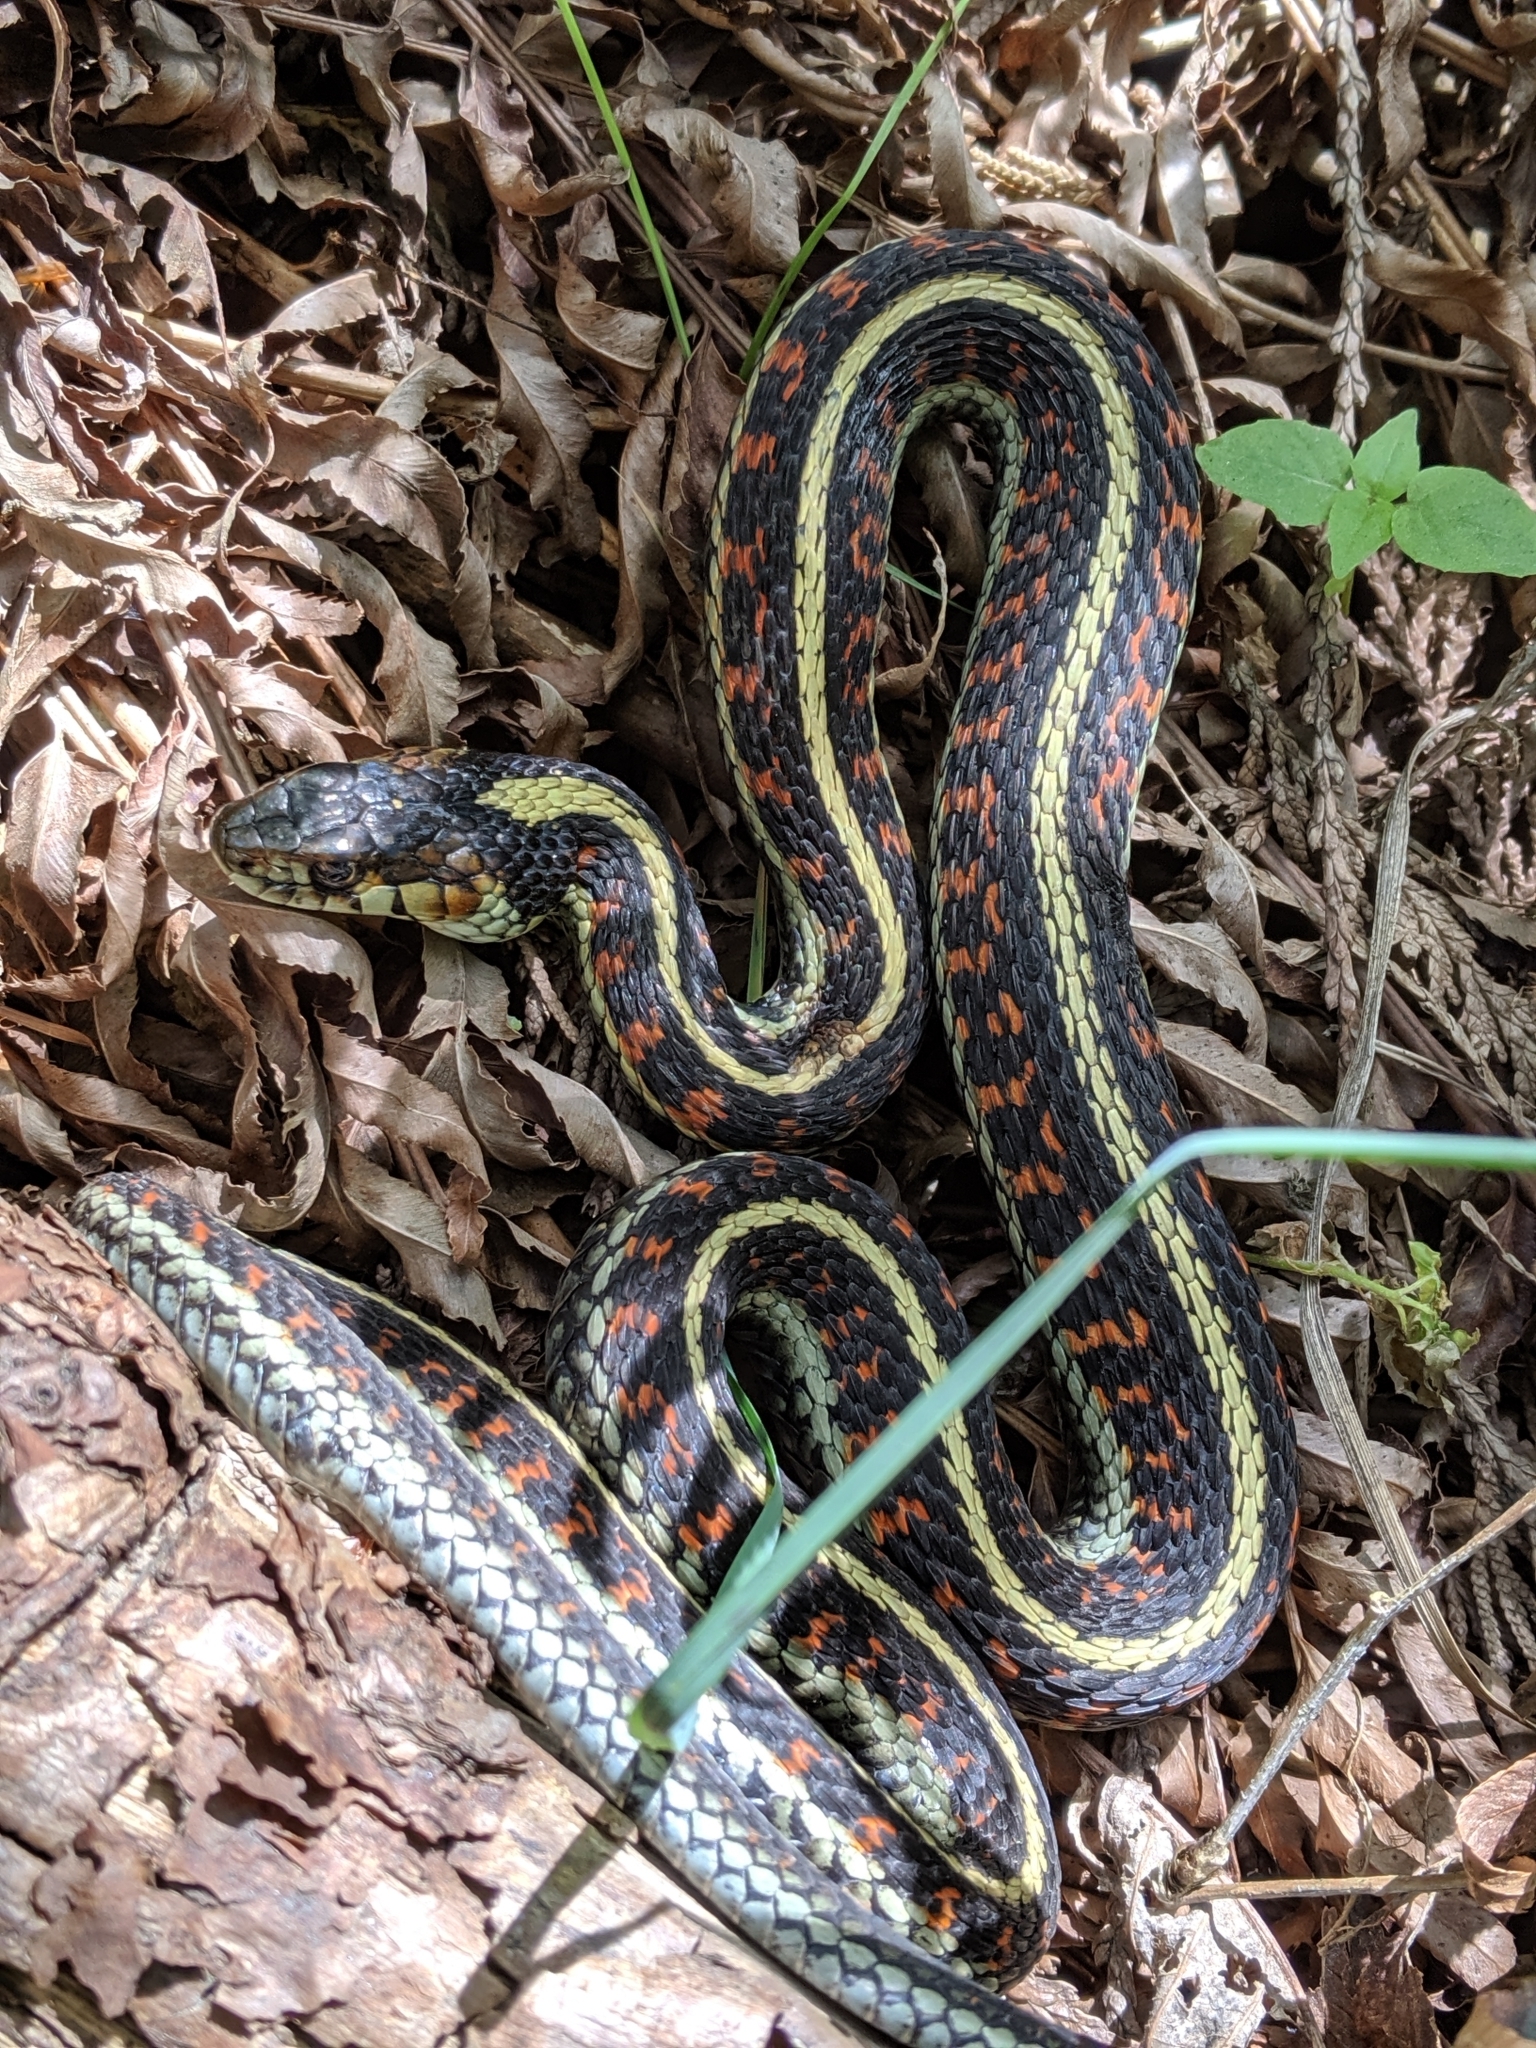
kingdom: Animalia
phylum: Chordata
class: Squamata
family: Colubridae
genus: Thamnophis
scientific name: Thamnophis sirtalis
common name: Common garter snake
